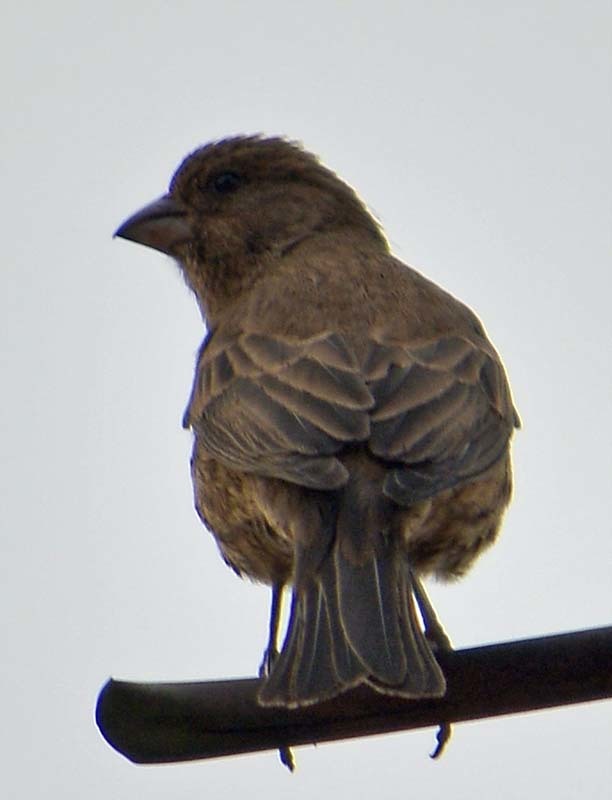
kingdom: Animalia
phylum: Chordata
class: Aves
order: Passeriformes
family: Fringillidae
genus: Haemorhous
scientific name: Haemorhous mexicanus
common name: House finch
